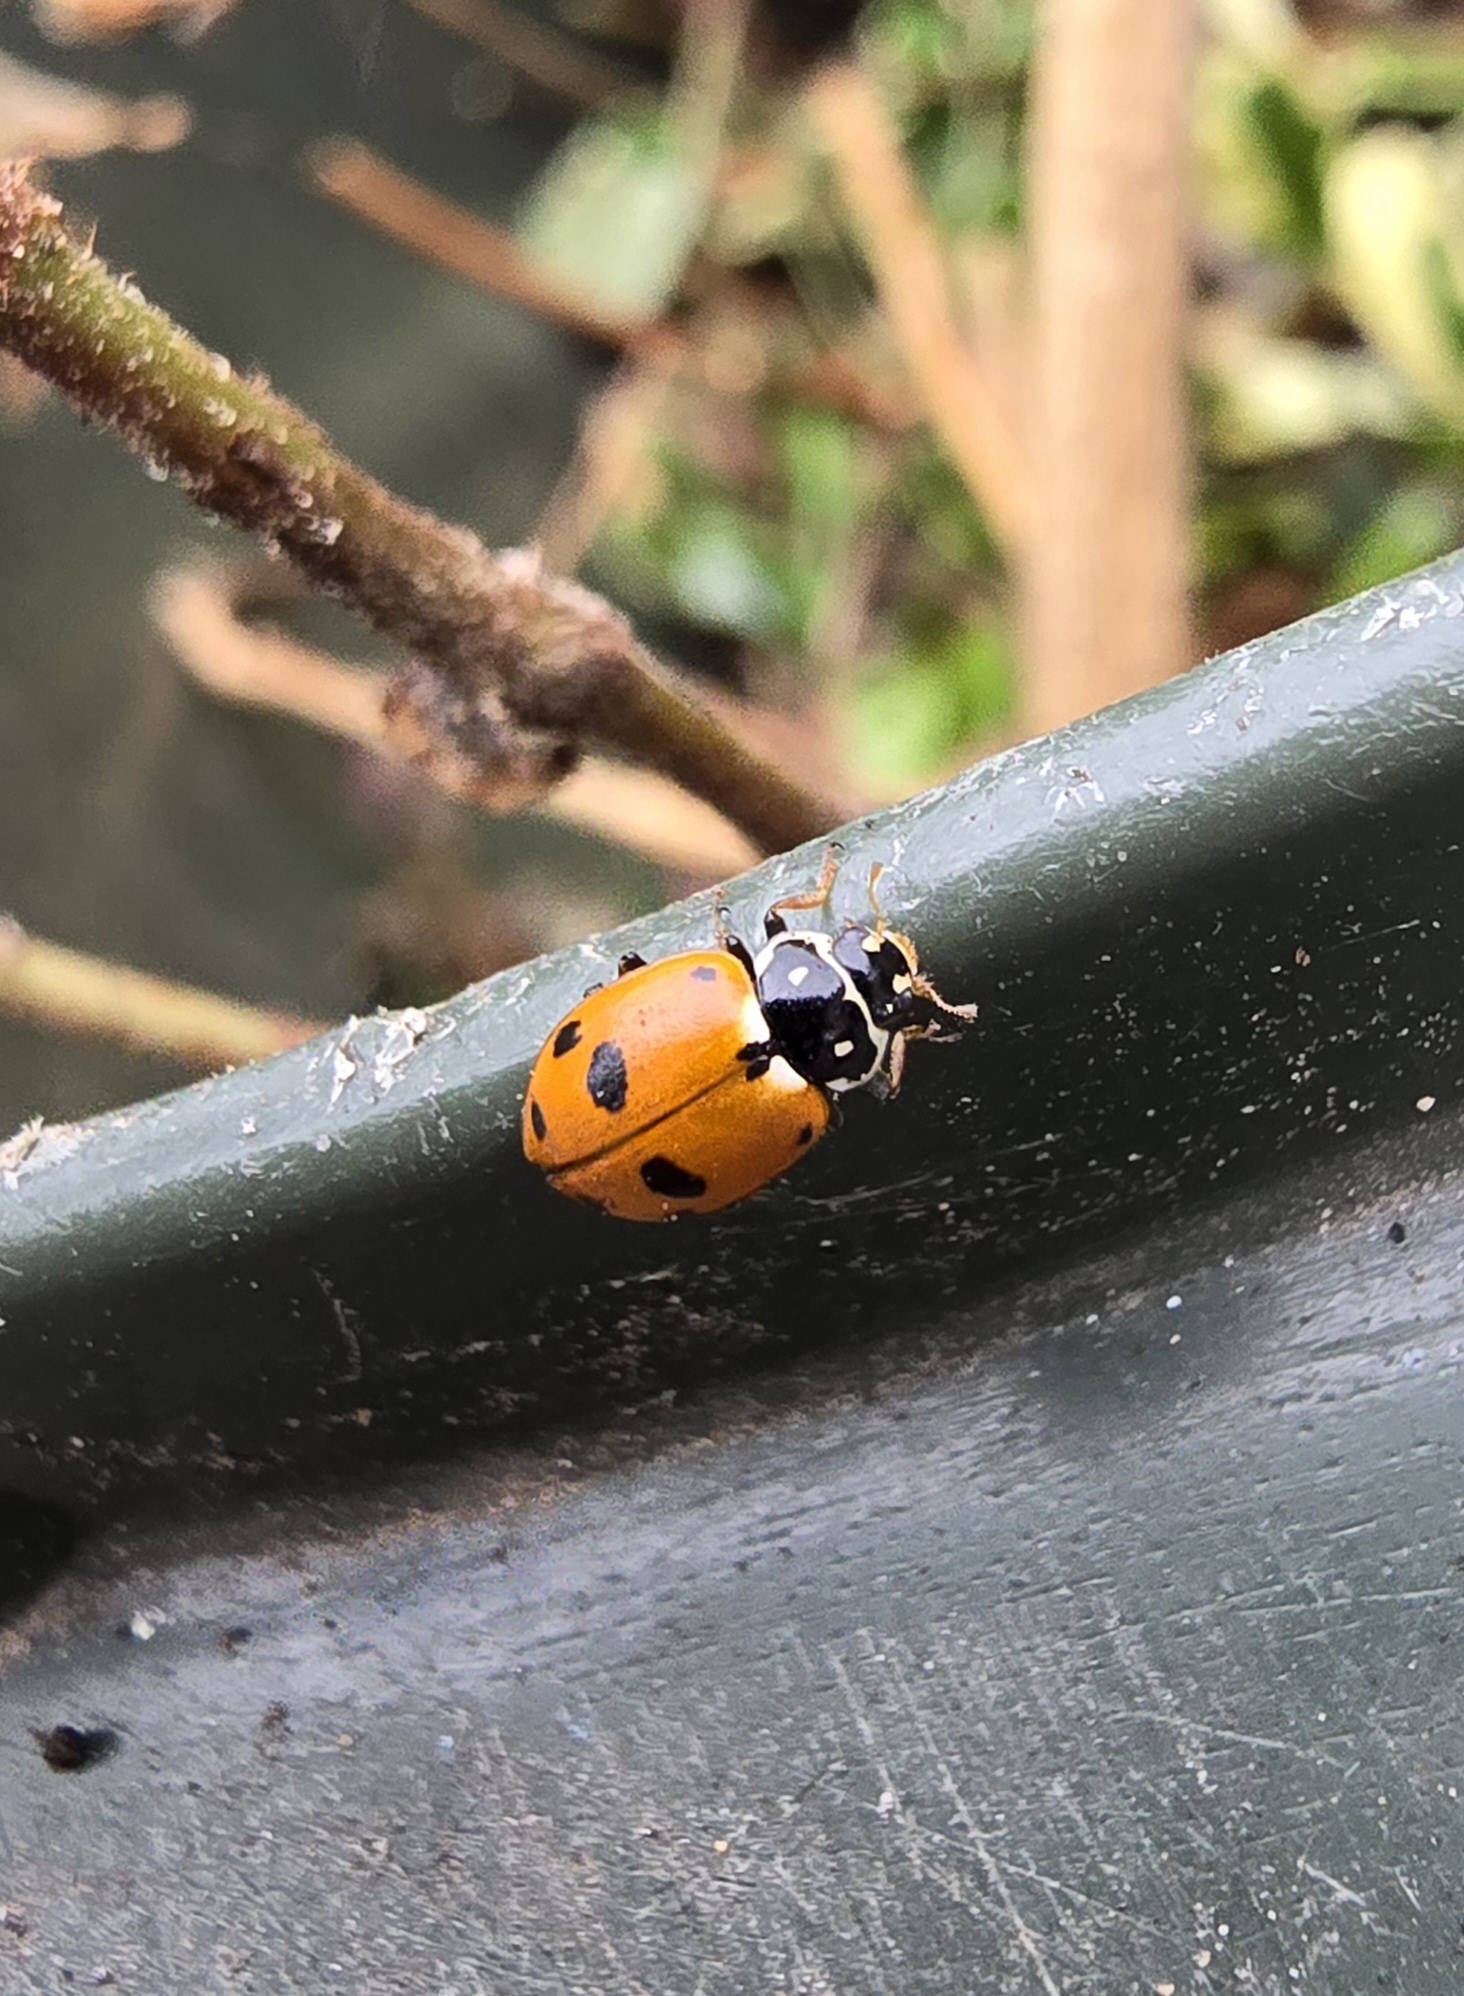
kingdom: Animalia
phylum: Arthropoda
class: Insecta
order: Coleoptera
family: Coccinellidae
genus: Hippodamia
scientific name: Hippodamia variegata
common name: Ladybird beetle
